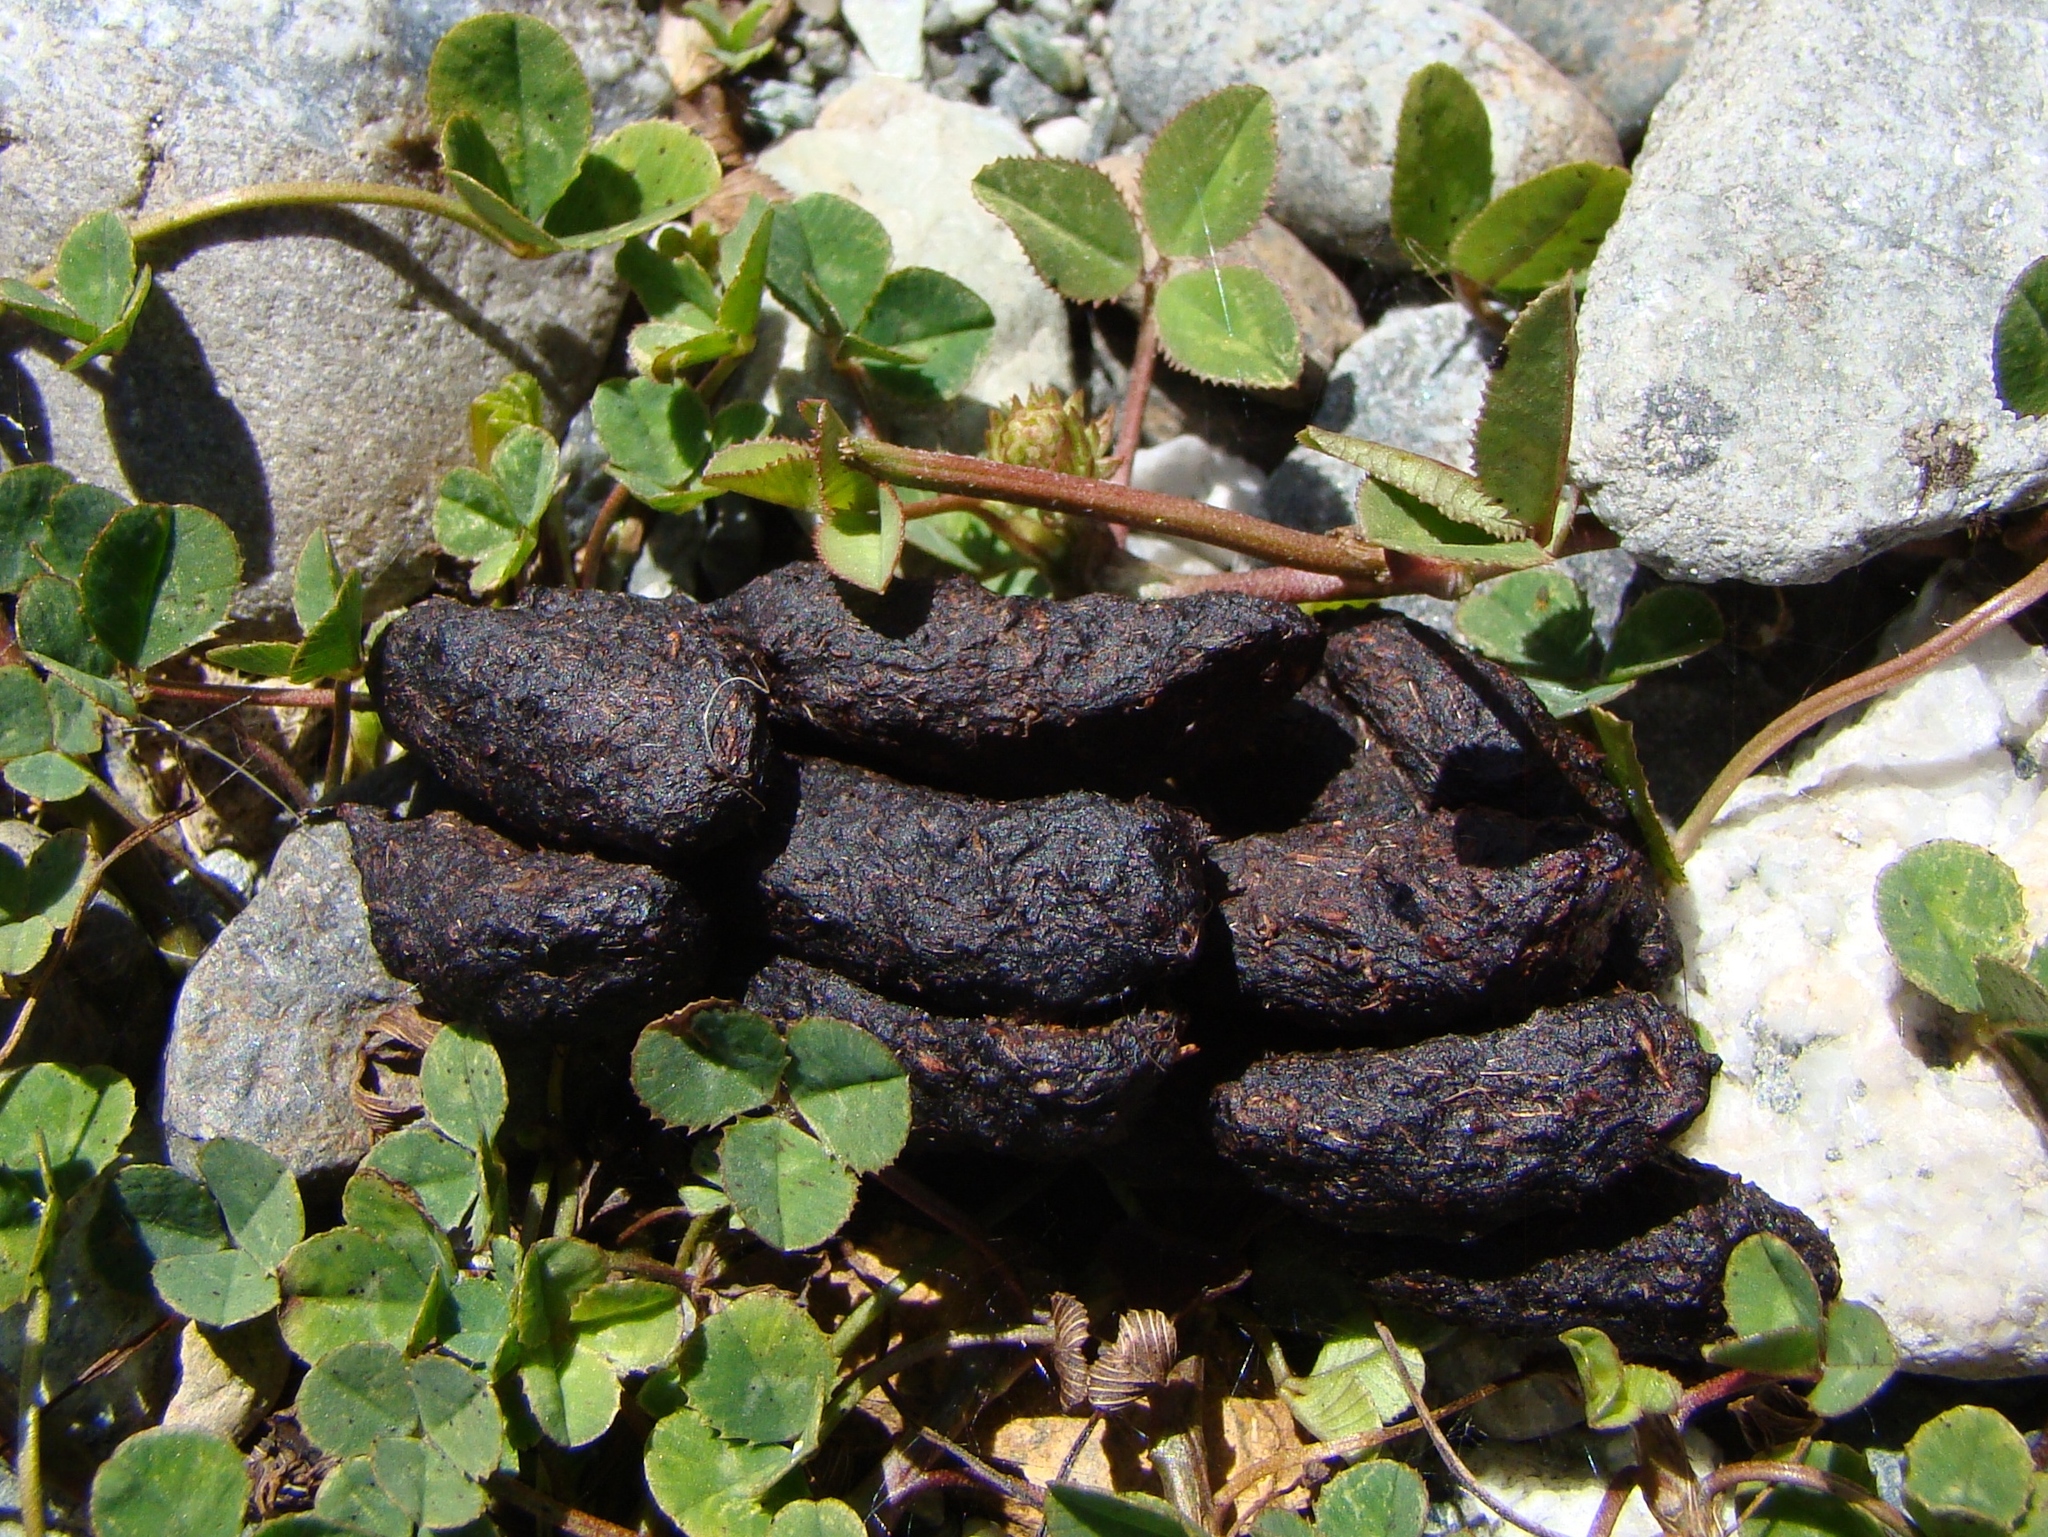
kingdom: Animalia
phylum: Chordata
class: Mammalia
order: Diprotodontia
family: Phalangeridae
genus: Trichosurus
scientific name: Trichosurus
